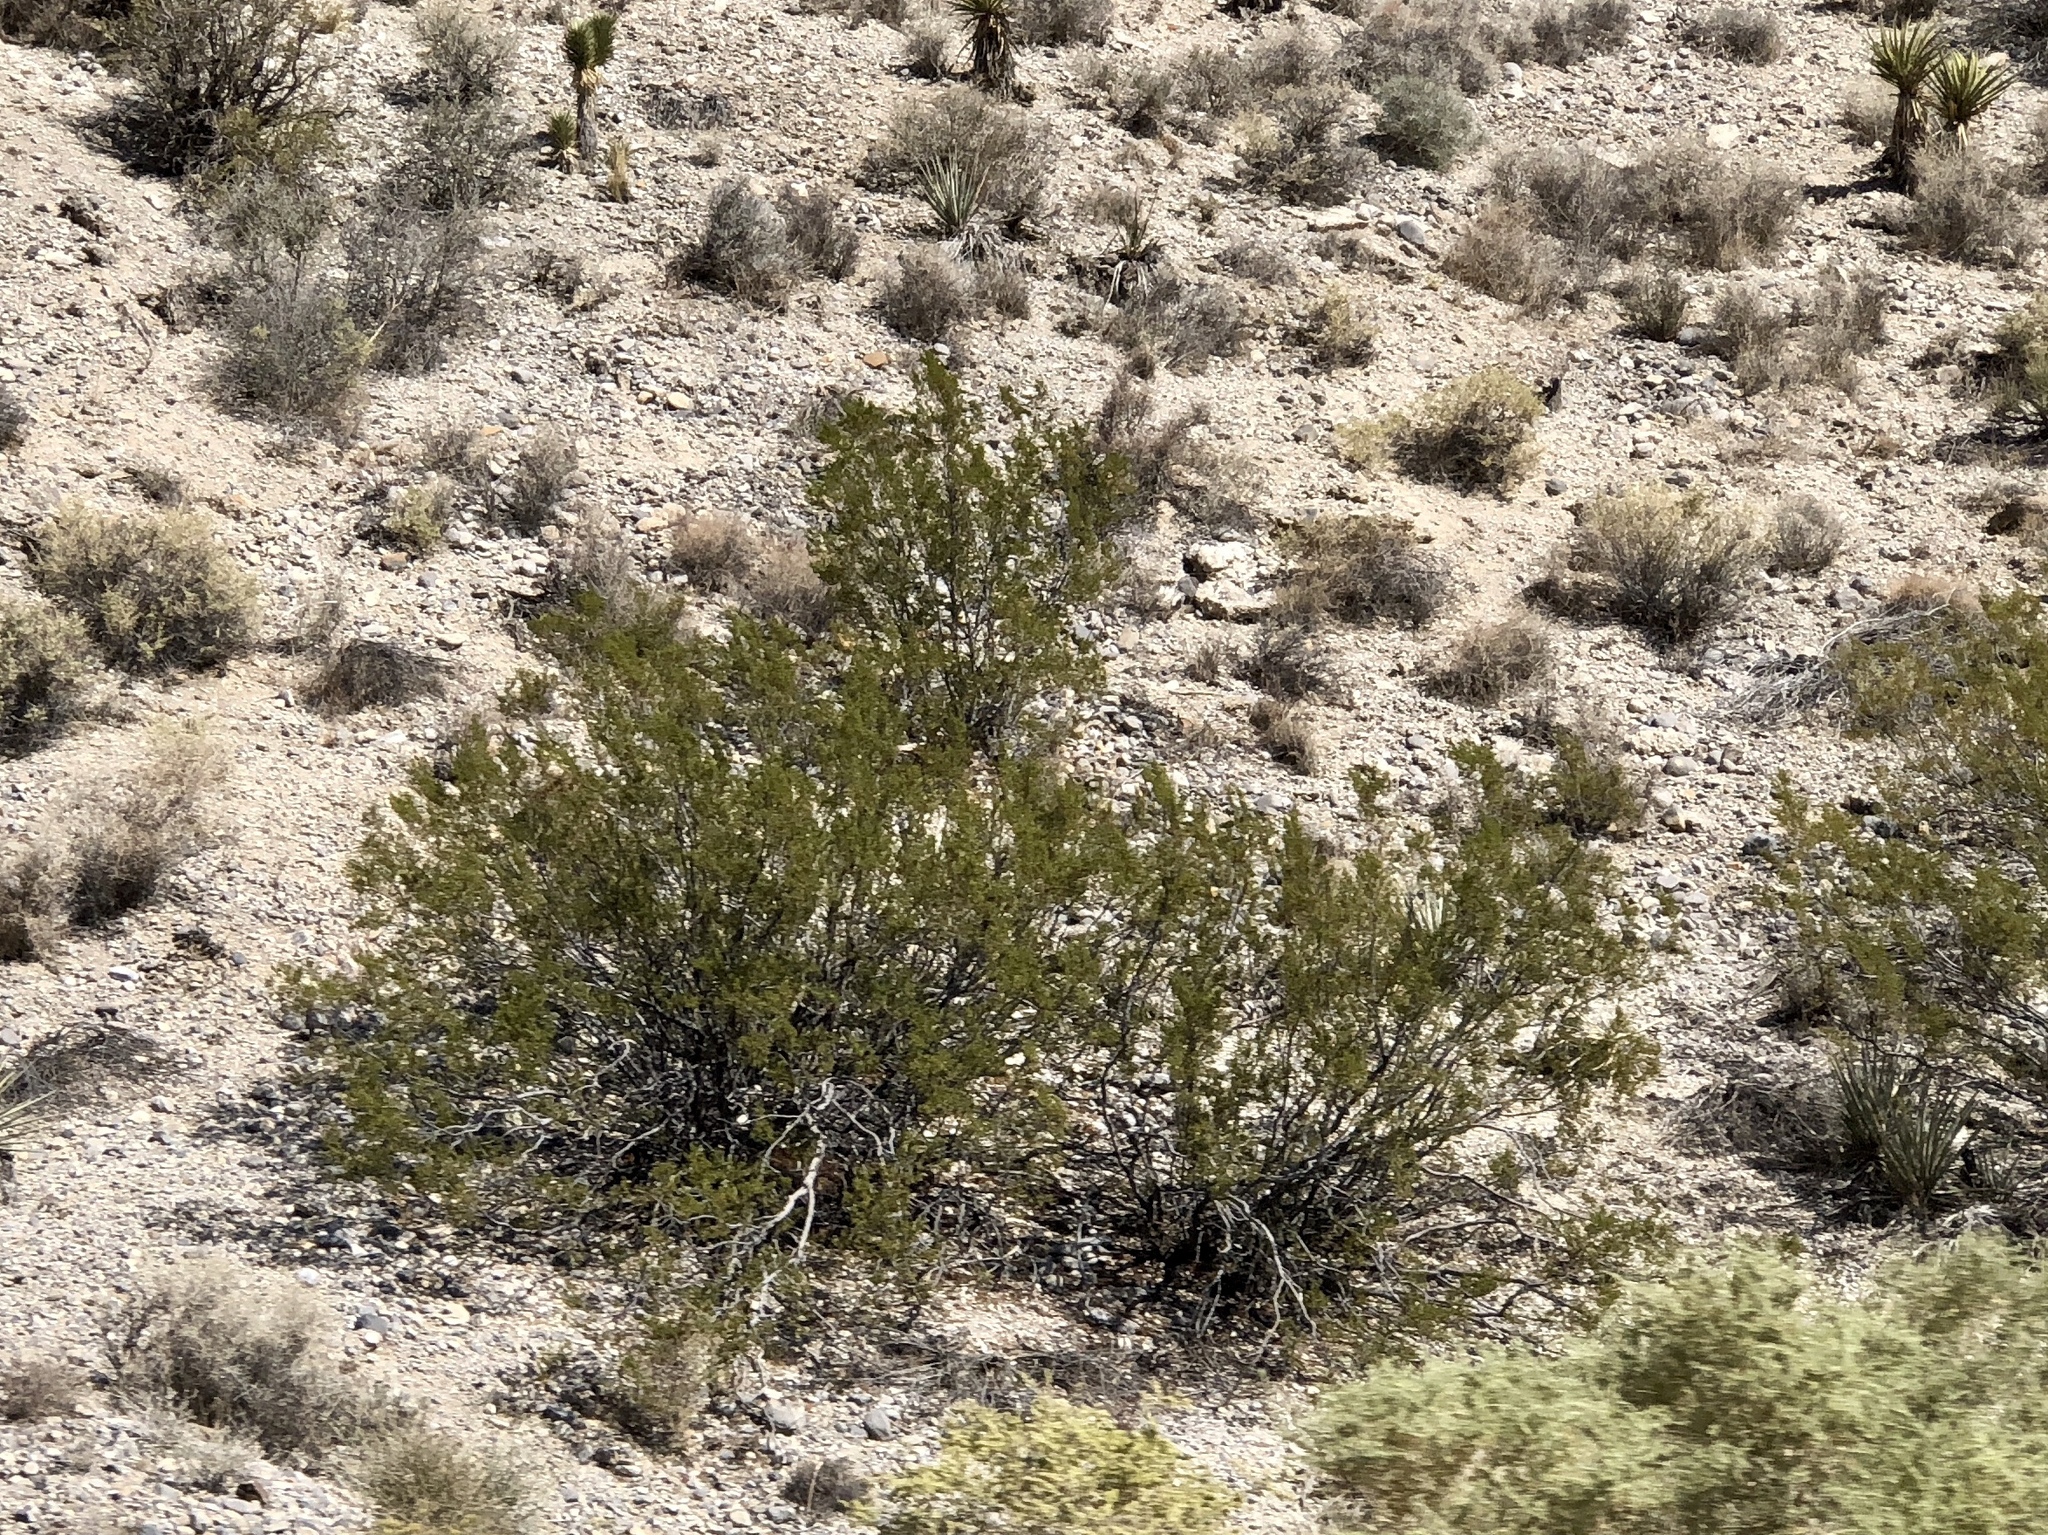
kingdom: Plantae
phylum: Tracheophyta
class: Magnoliopsida
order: Zygophyllales
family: Zygophyllaceae
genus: Larrea
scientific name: Larrea tridentata
